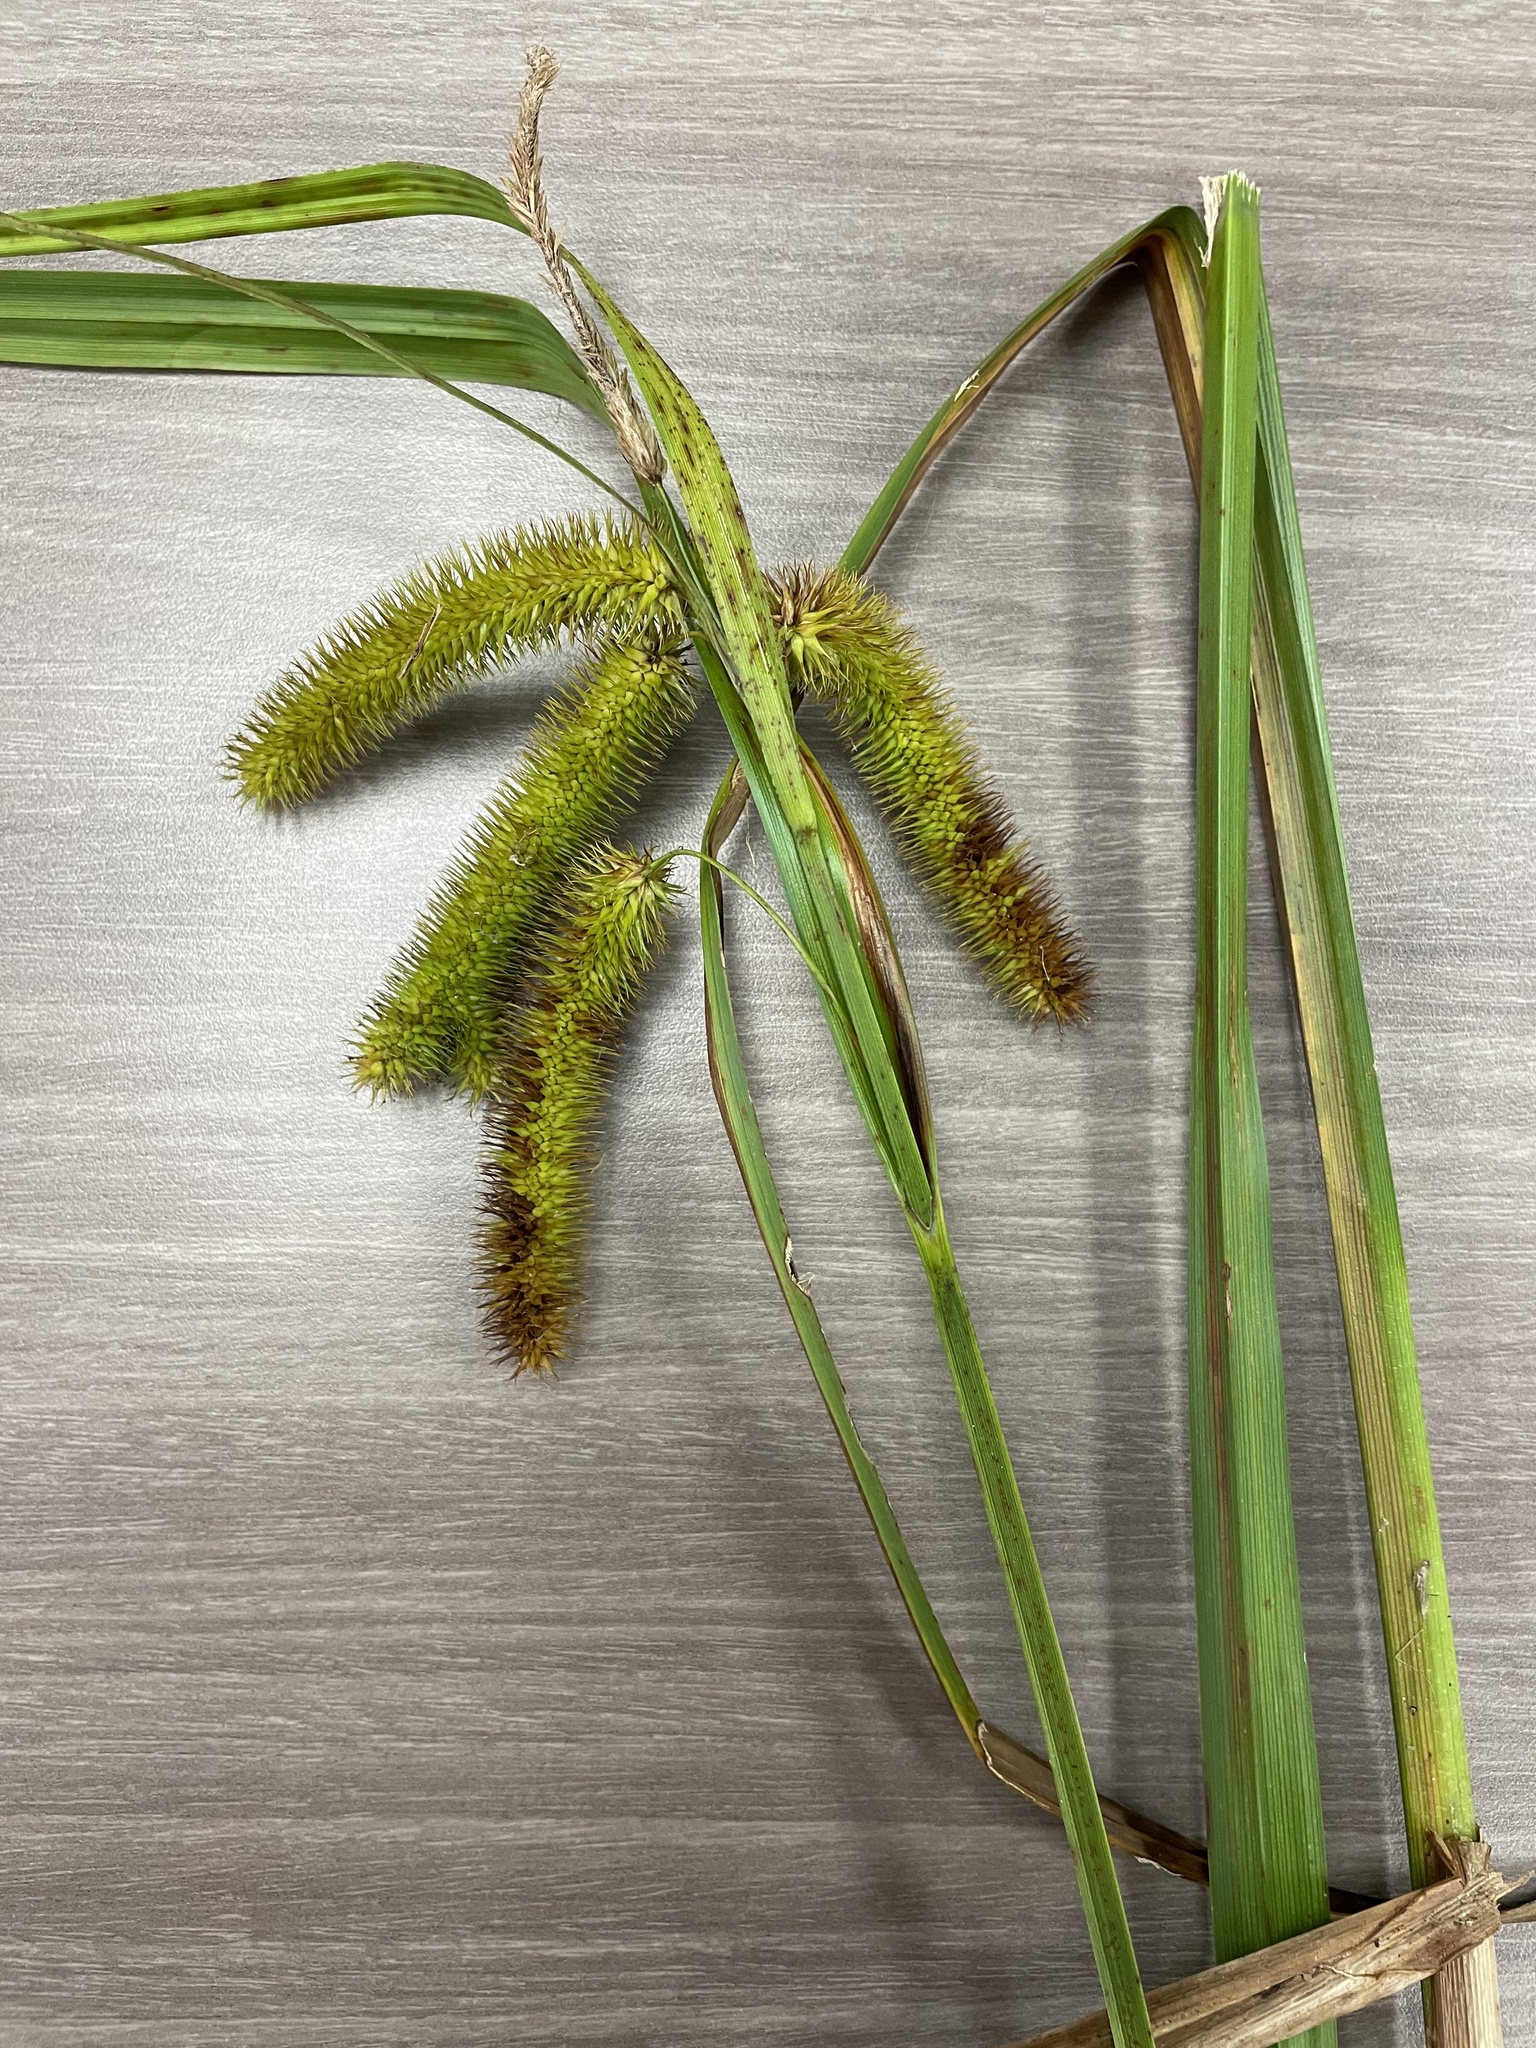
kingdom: Plantae
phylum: Tracheophyta
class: Liliopsida
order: Poales
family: Cyperaceae
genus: Carex
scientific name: Carex comosa
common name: Bristly sedge
